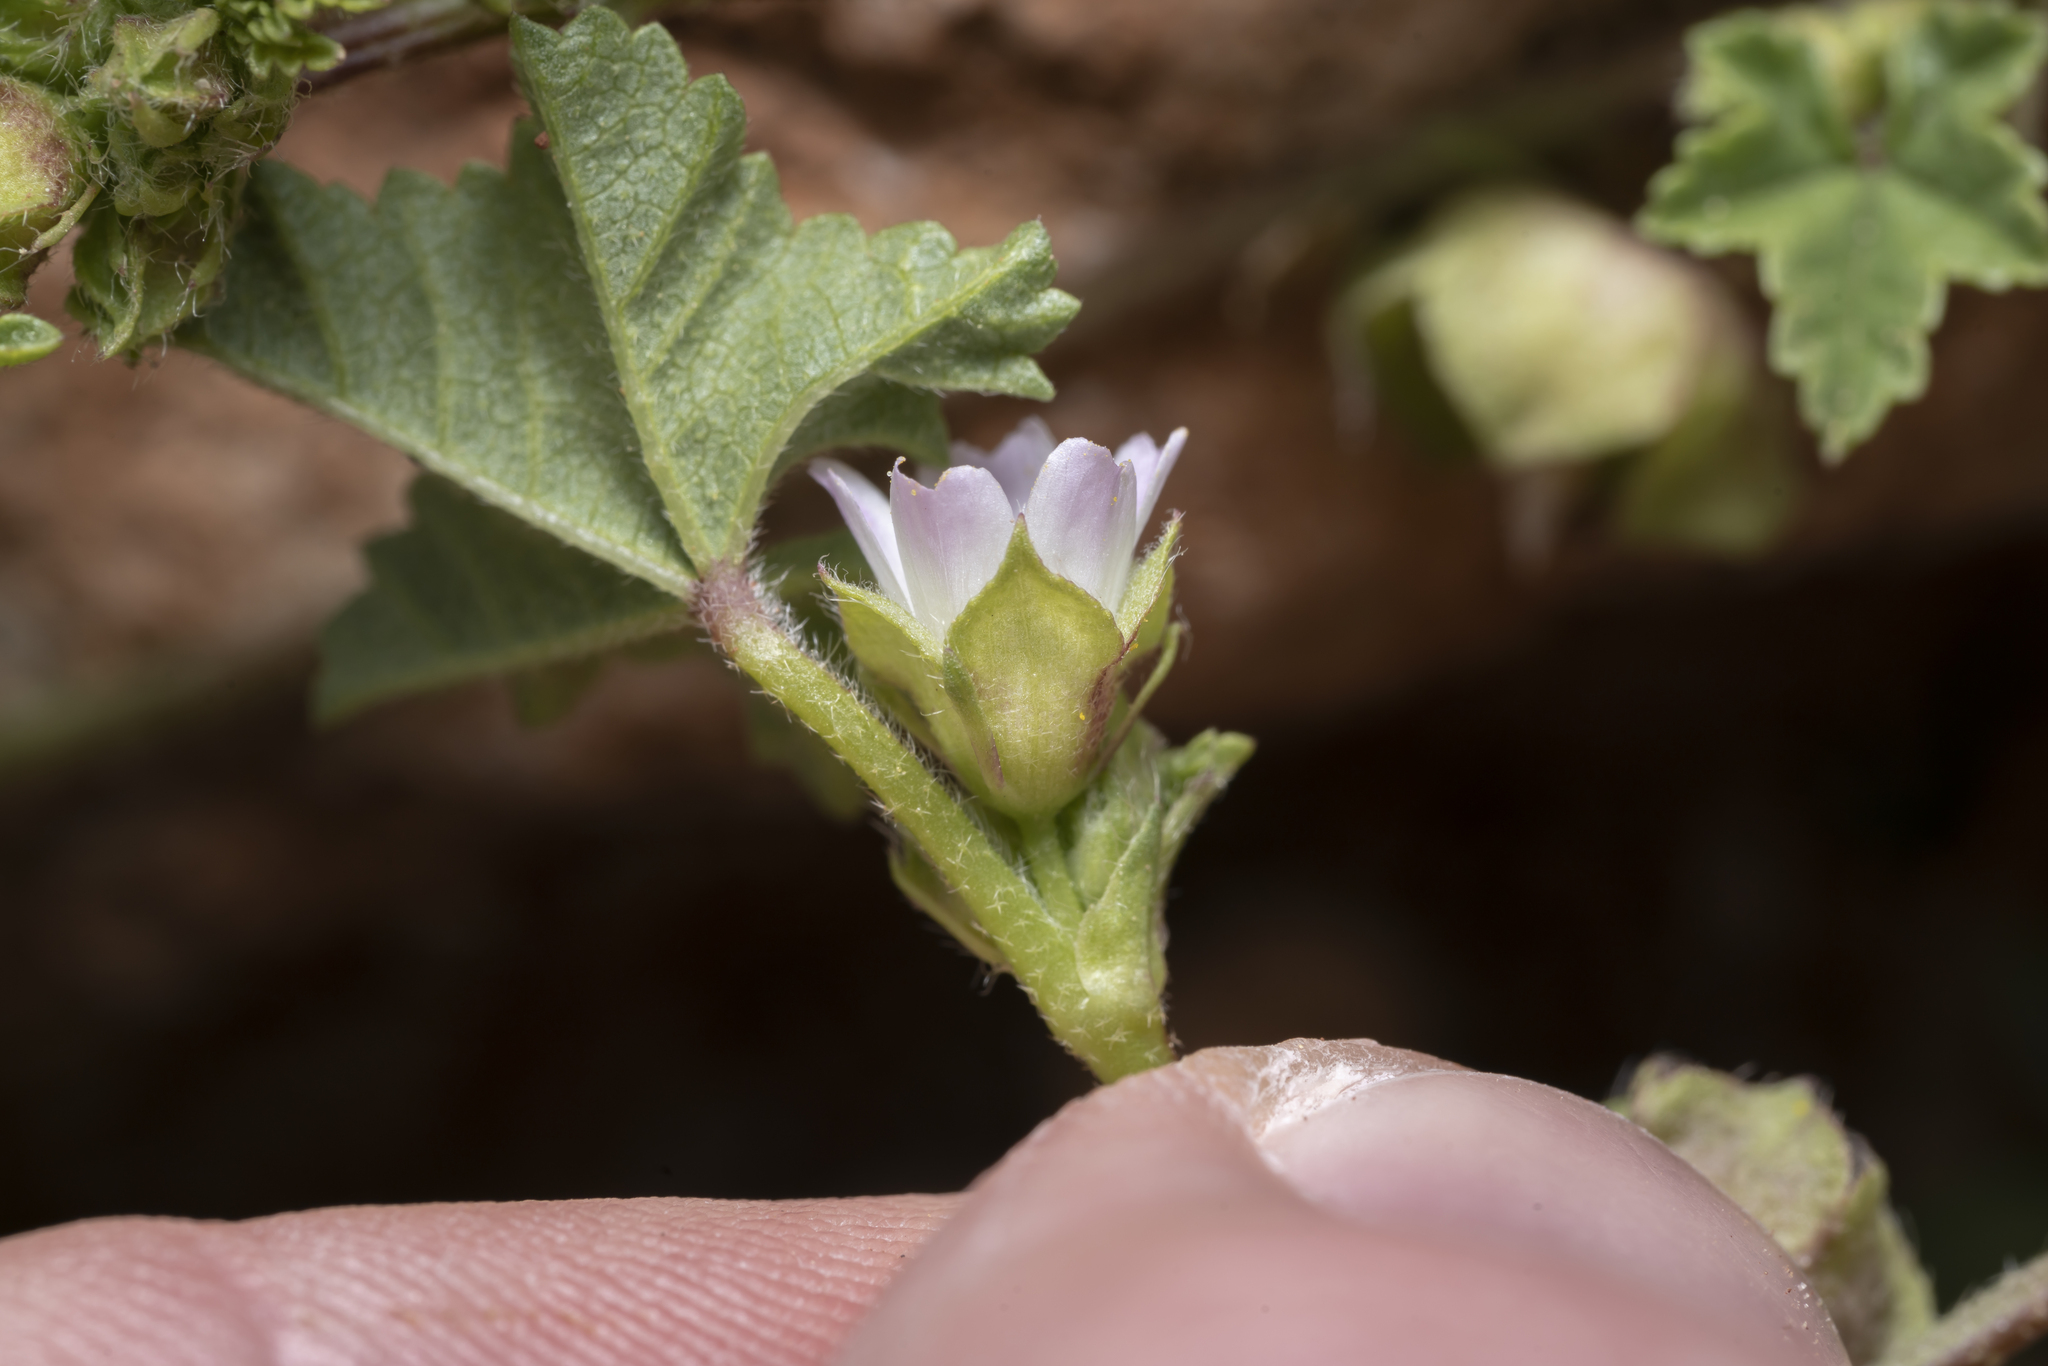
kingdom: Plantae
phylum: Tracheophyta
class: Magnoliopsida
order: Malvales
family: Malvaceae
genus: Malva
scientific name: Malva parviflora
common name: Least mallow
